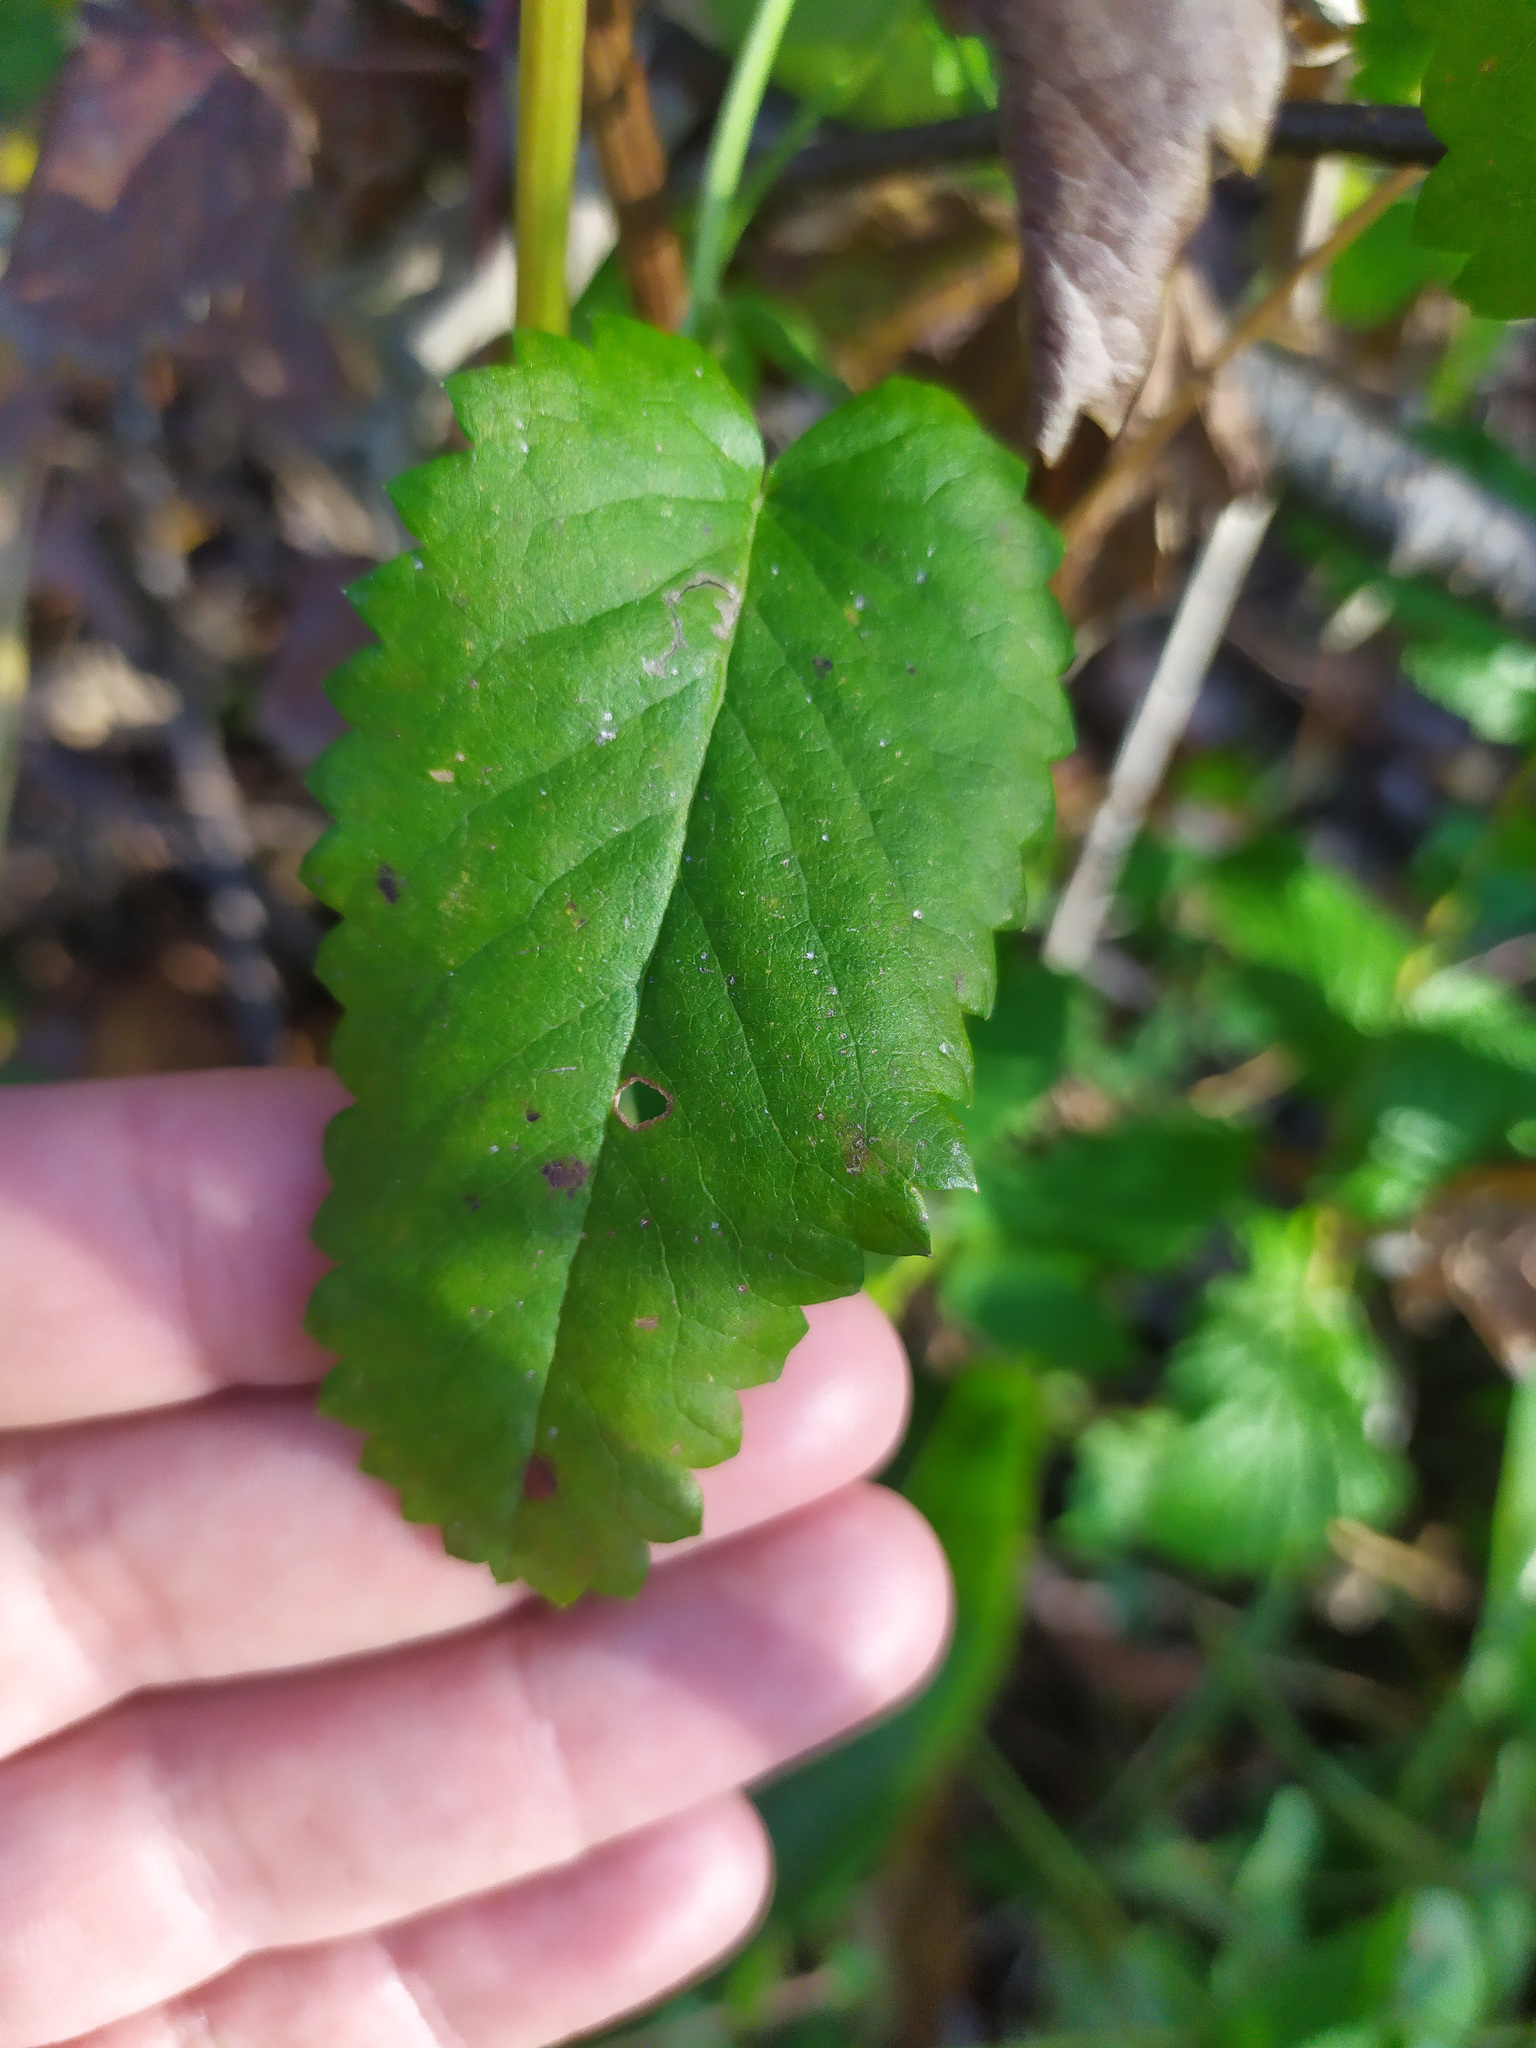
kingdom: Plantae
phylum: Tracheophyta
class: Magnoliopsida
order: Lamiales
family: Lamiaceae
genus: Betonica
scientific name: Betonica officinalis
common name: Bishop's-wort
